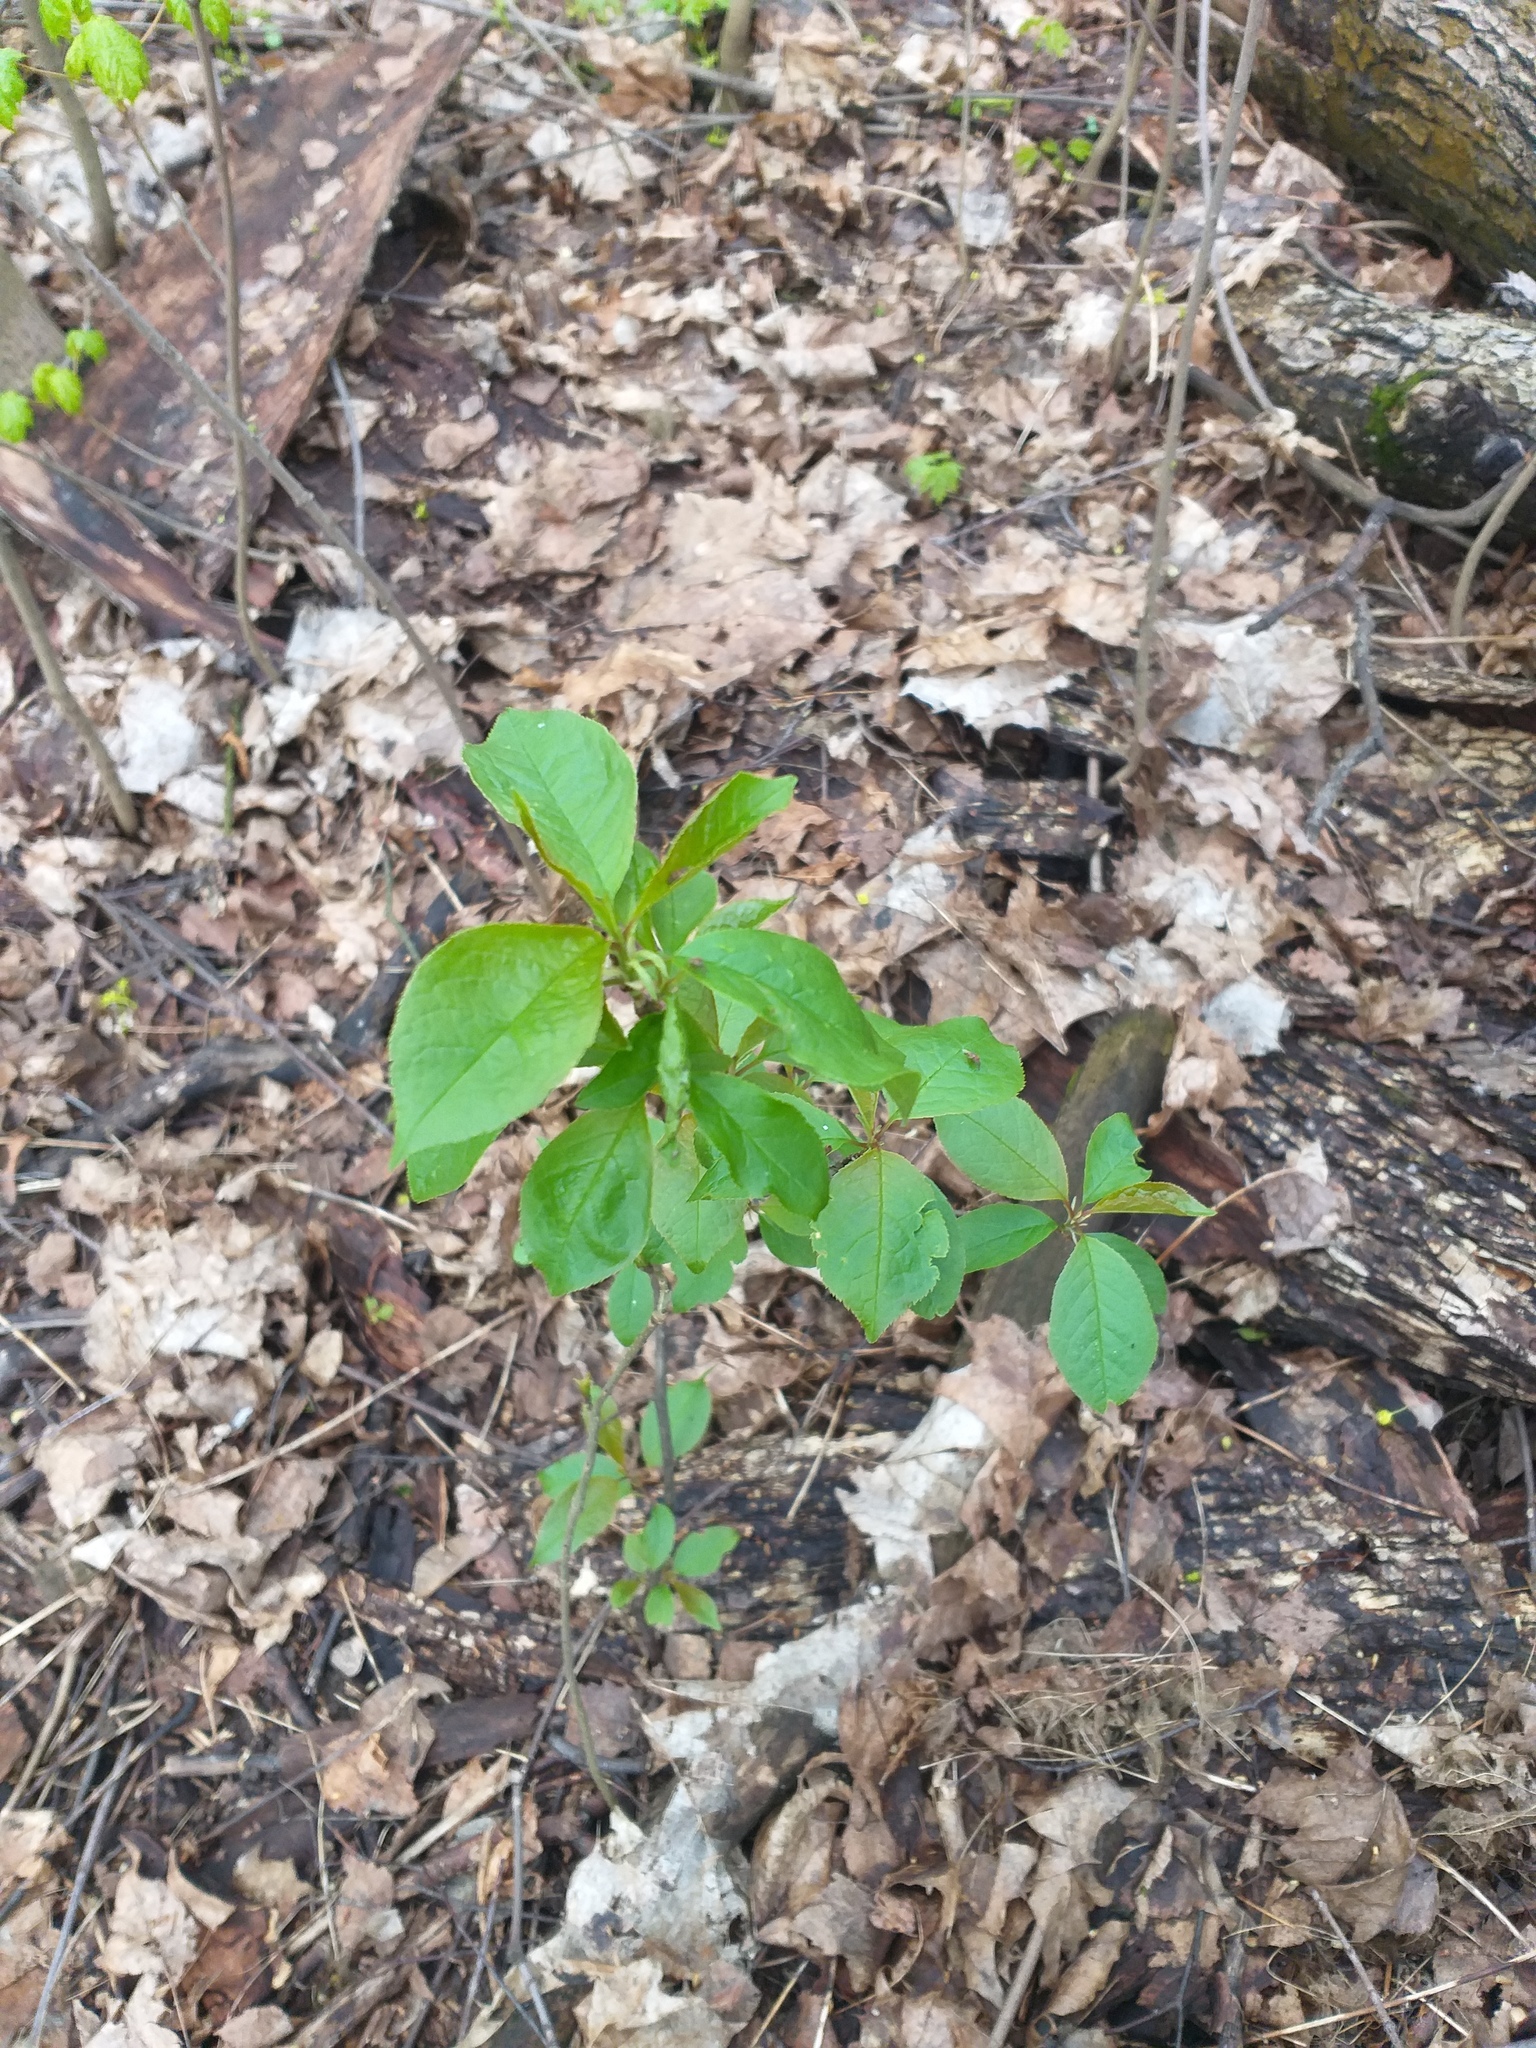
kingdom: Plantae
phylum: Tracheophyta
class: Magnoliopsida
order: Rosales
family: Rosaceae
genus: Prunus
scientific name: Prunus padus
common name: Bird cherry
